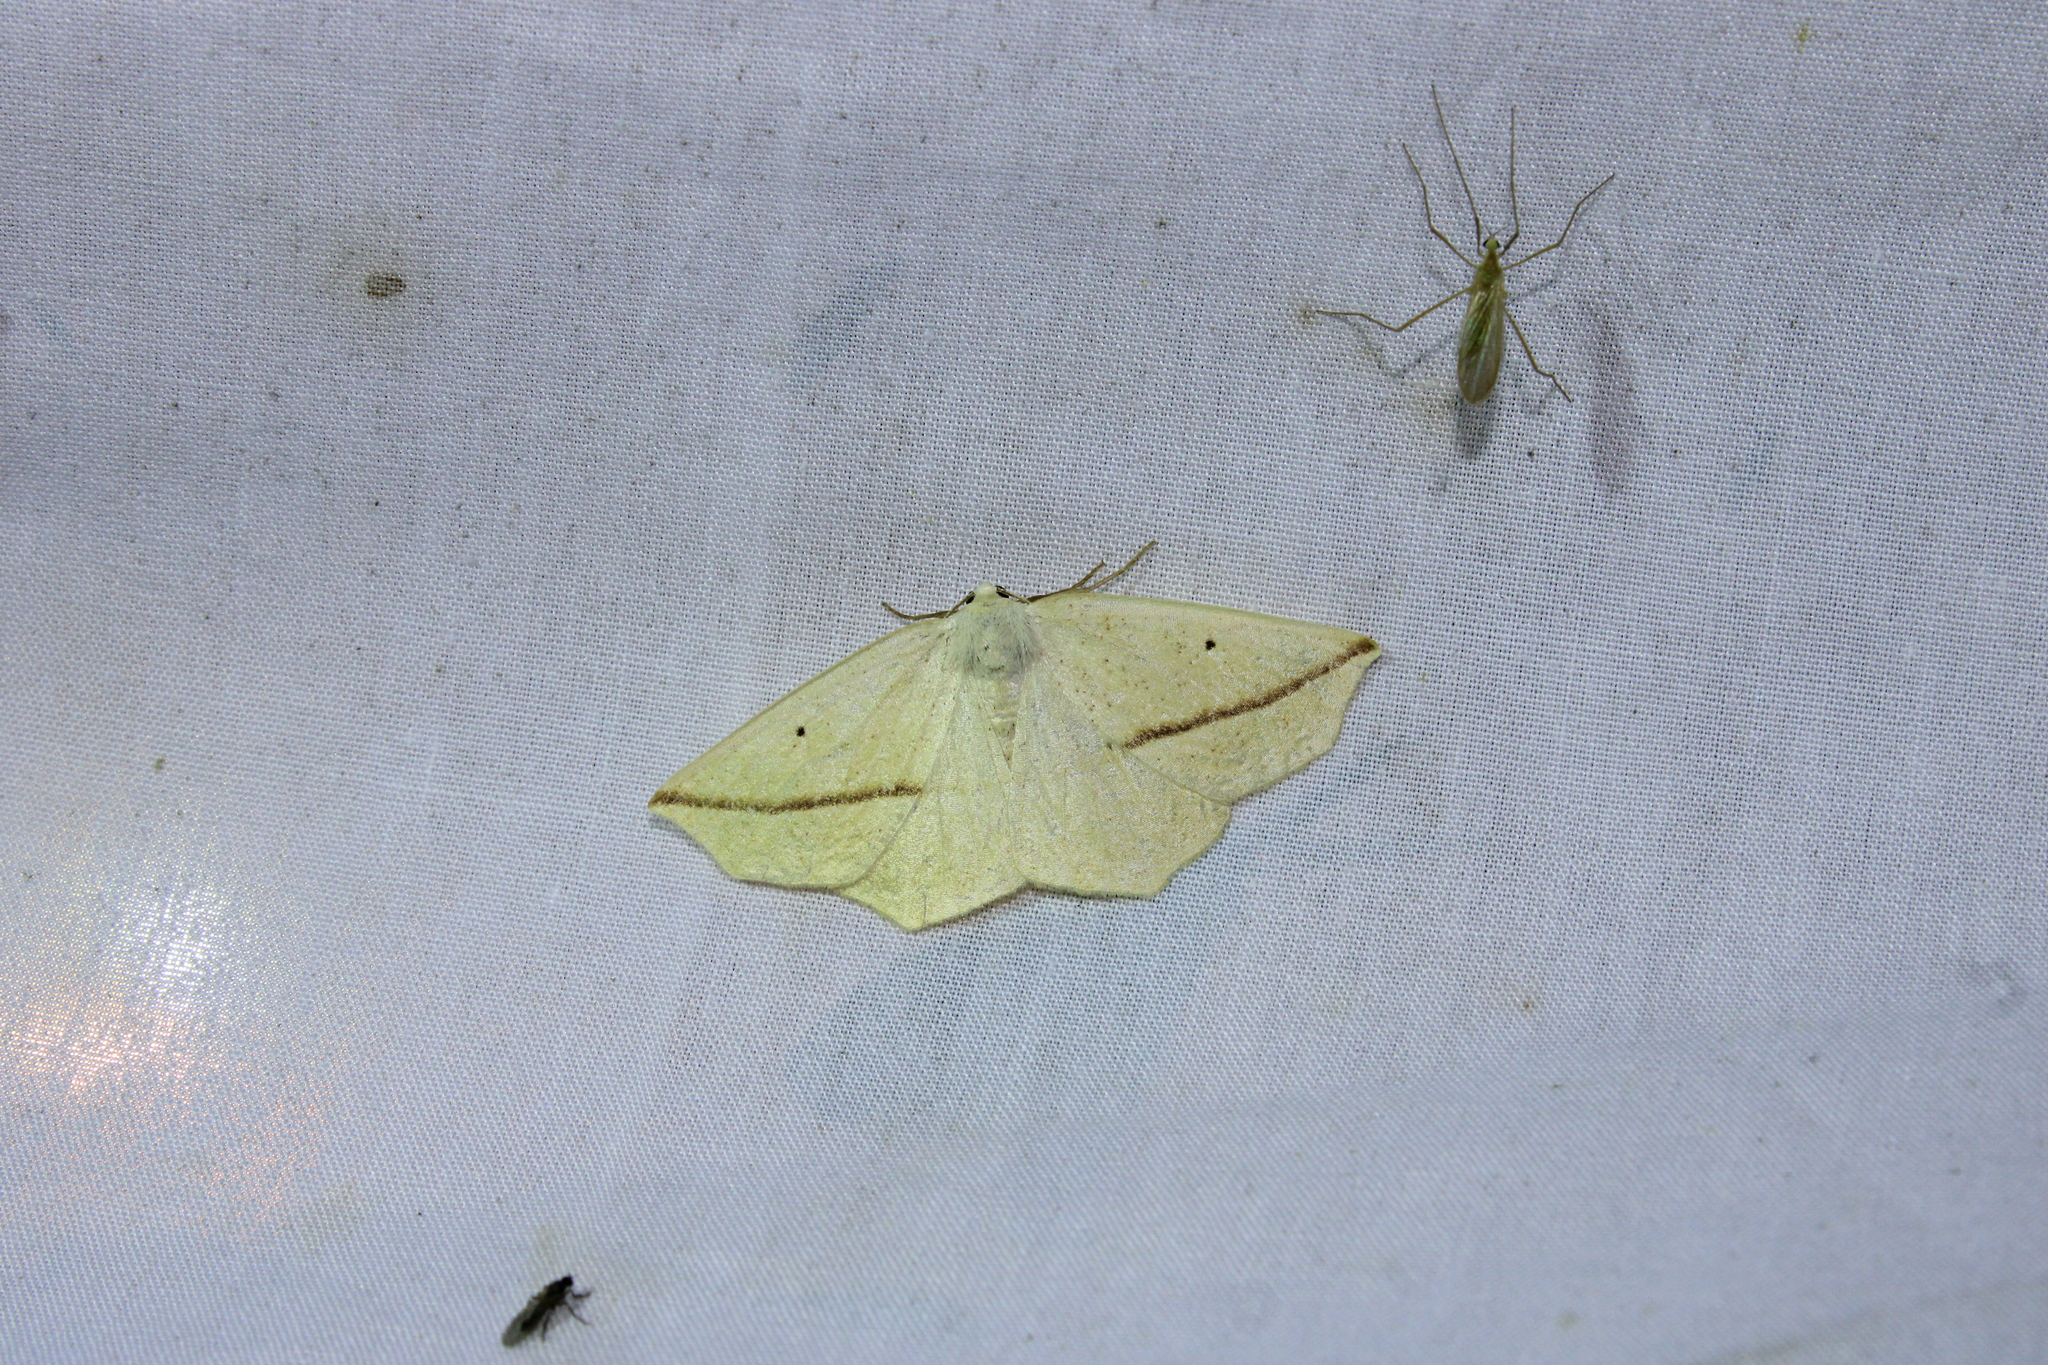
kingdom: Animalia
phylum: Arthropoda
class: Insecta
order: Lepidoptera
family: Geometridae
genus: Tetracis
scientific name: Tetracis crocallata
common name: Yellow slant-line
